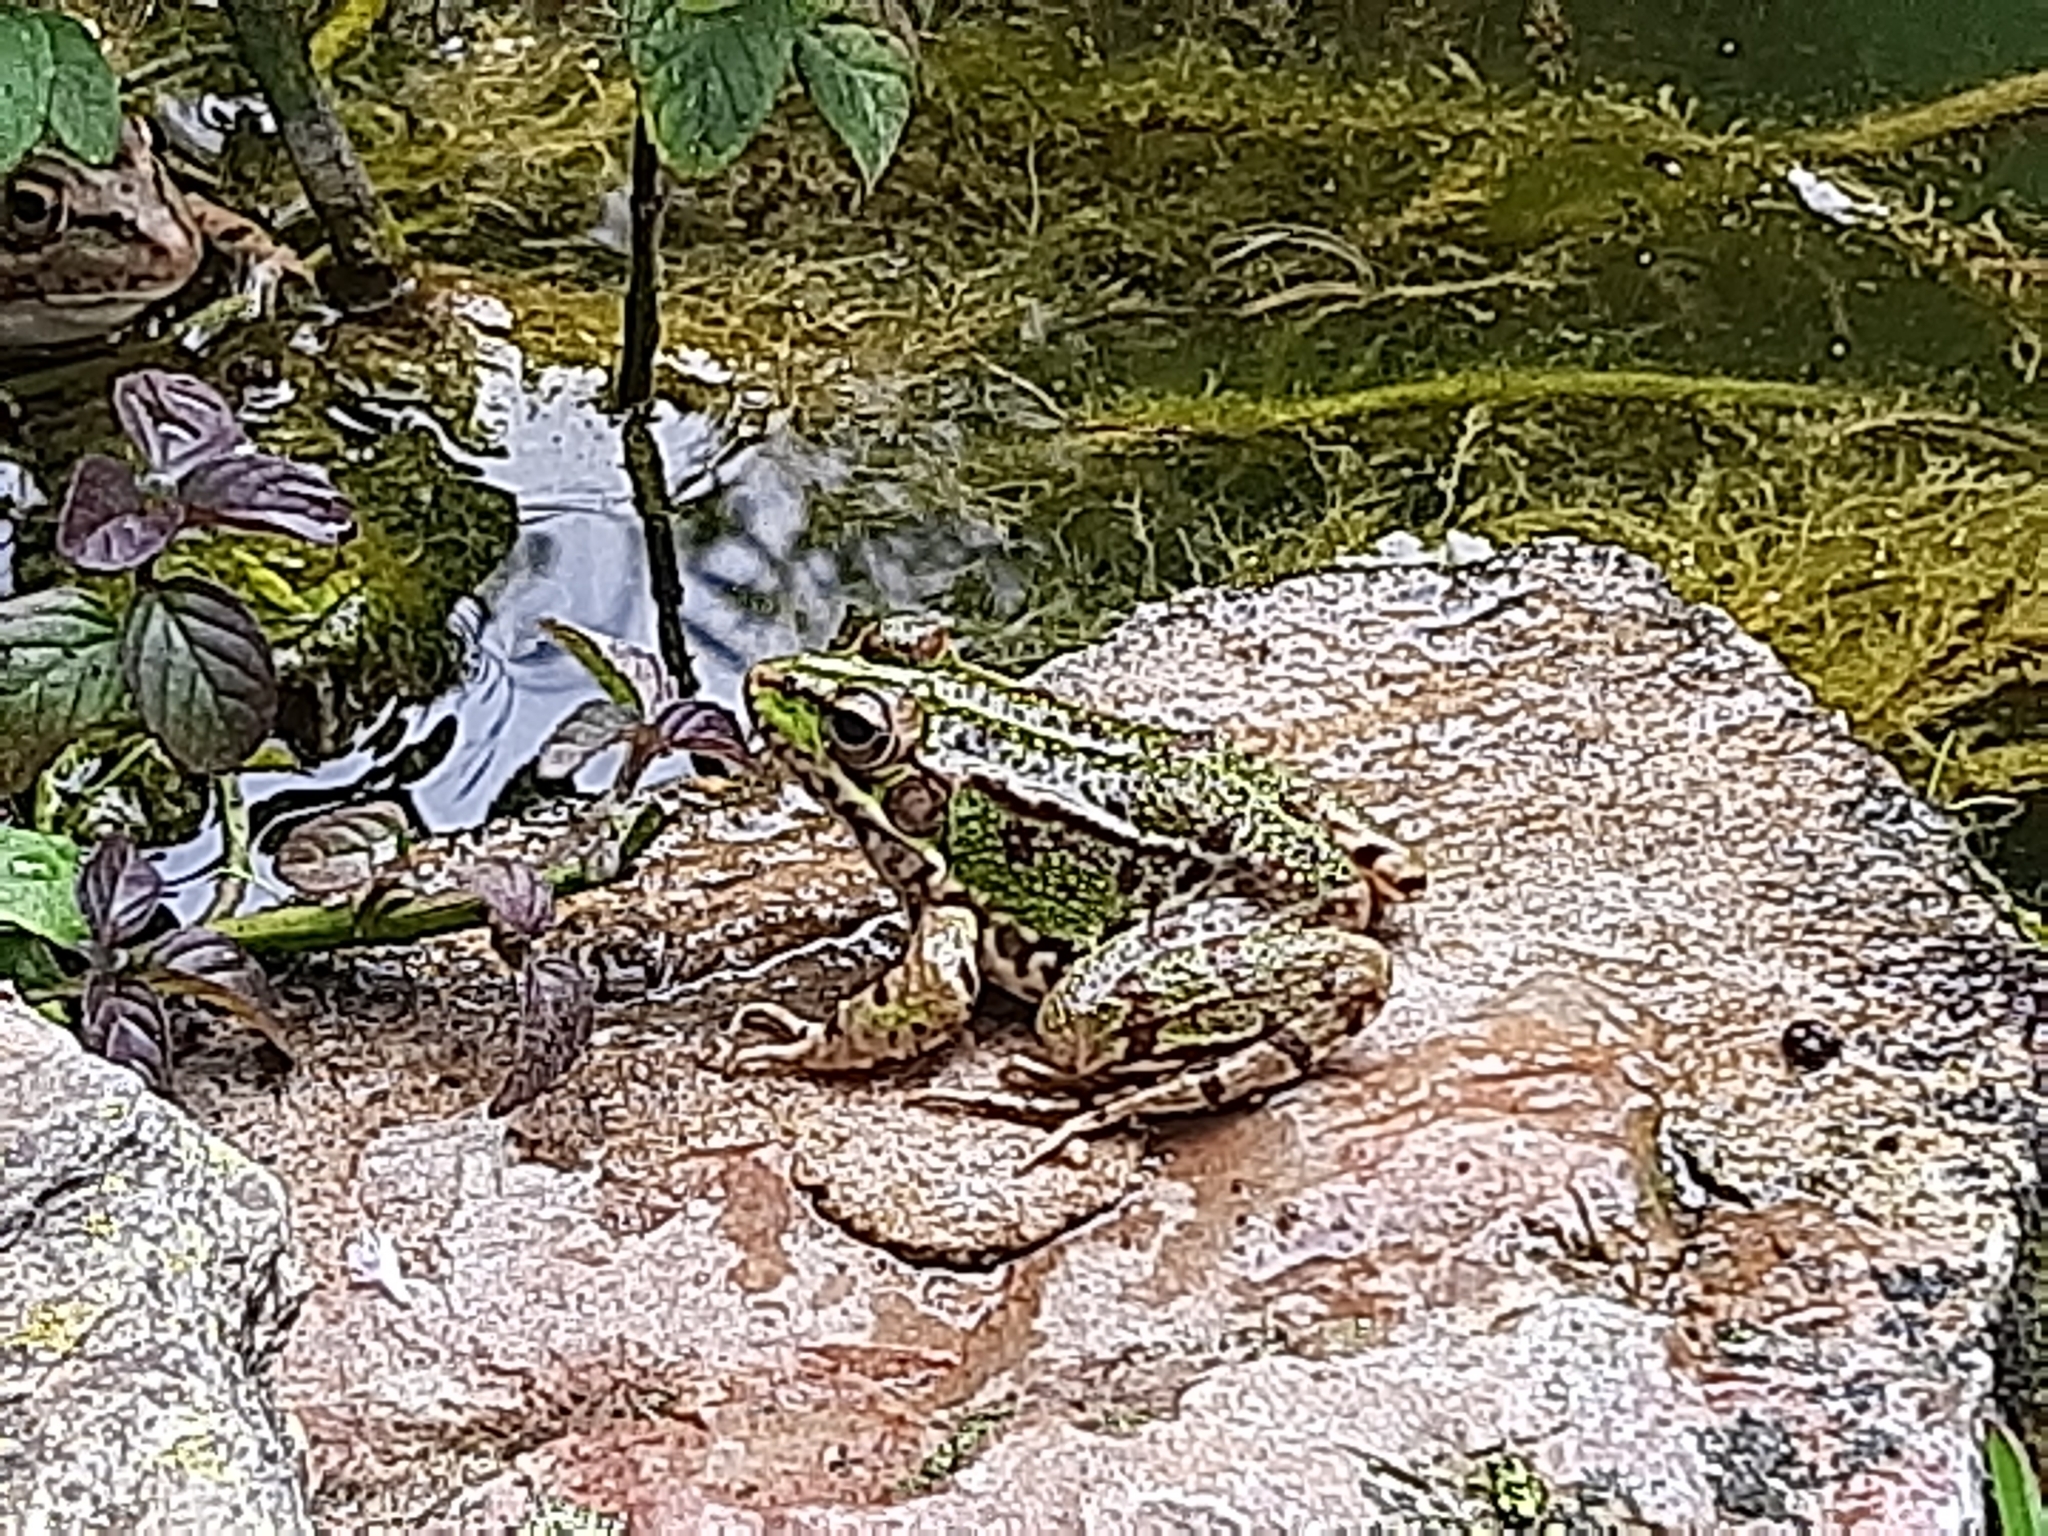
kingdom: Animalia
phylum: Chordata
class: Amphibia
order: Anura
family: Ranidae
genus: Pelophylax
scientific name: Pelophylax perezi
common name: Perez's frog
